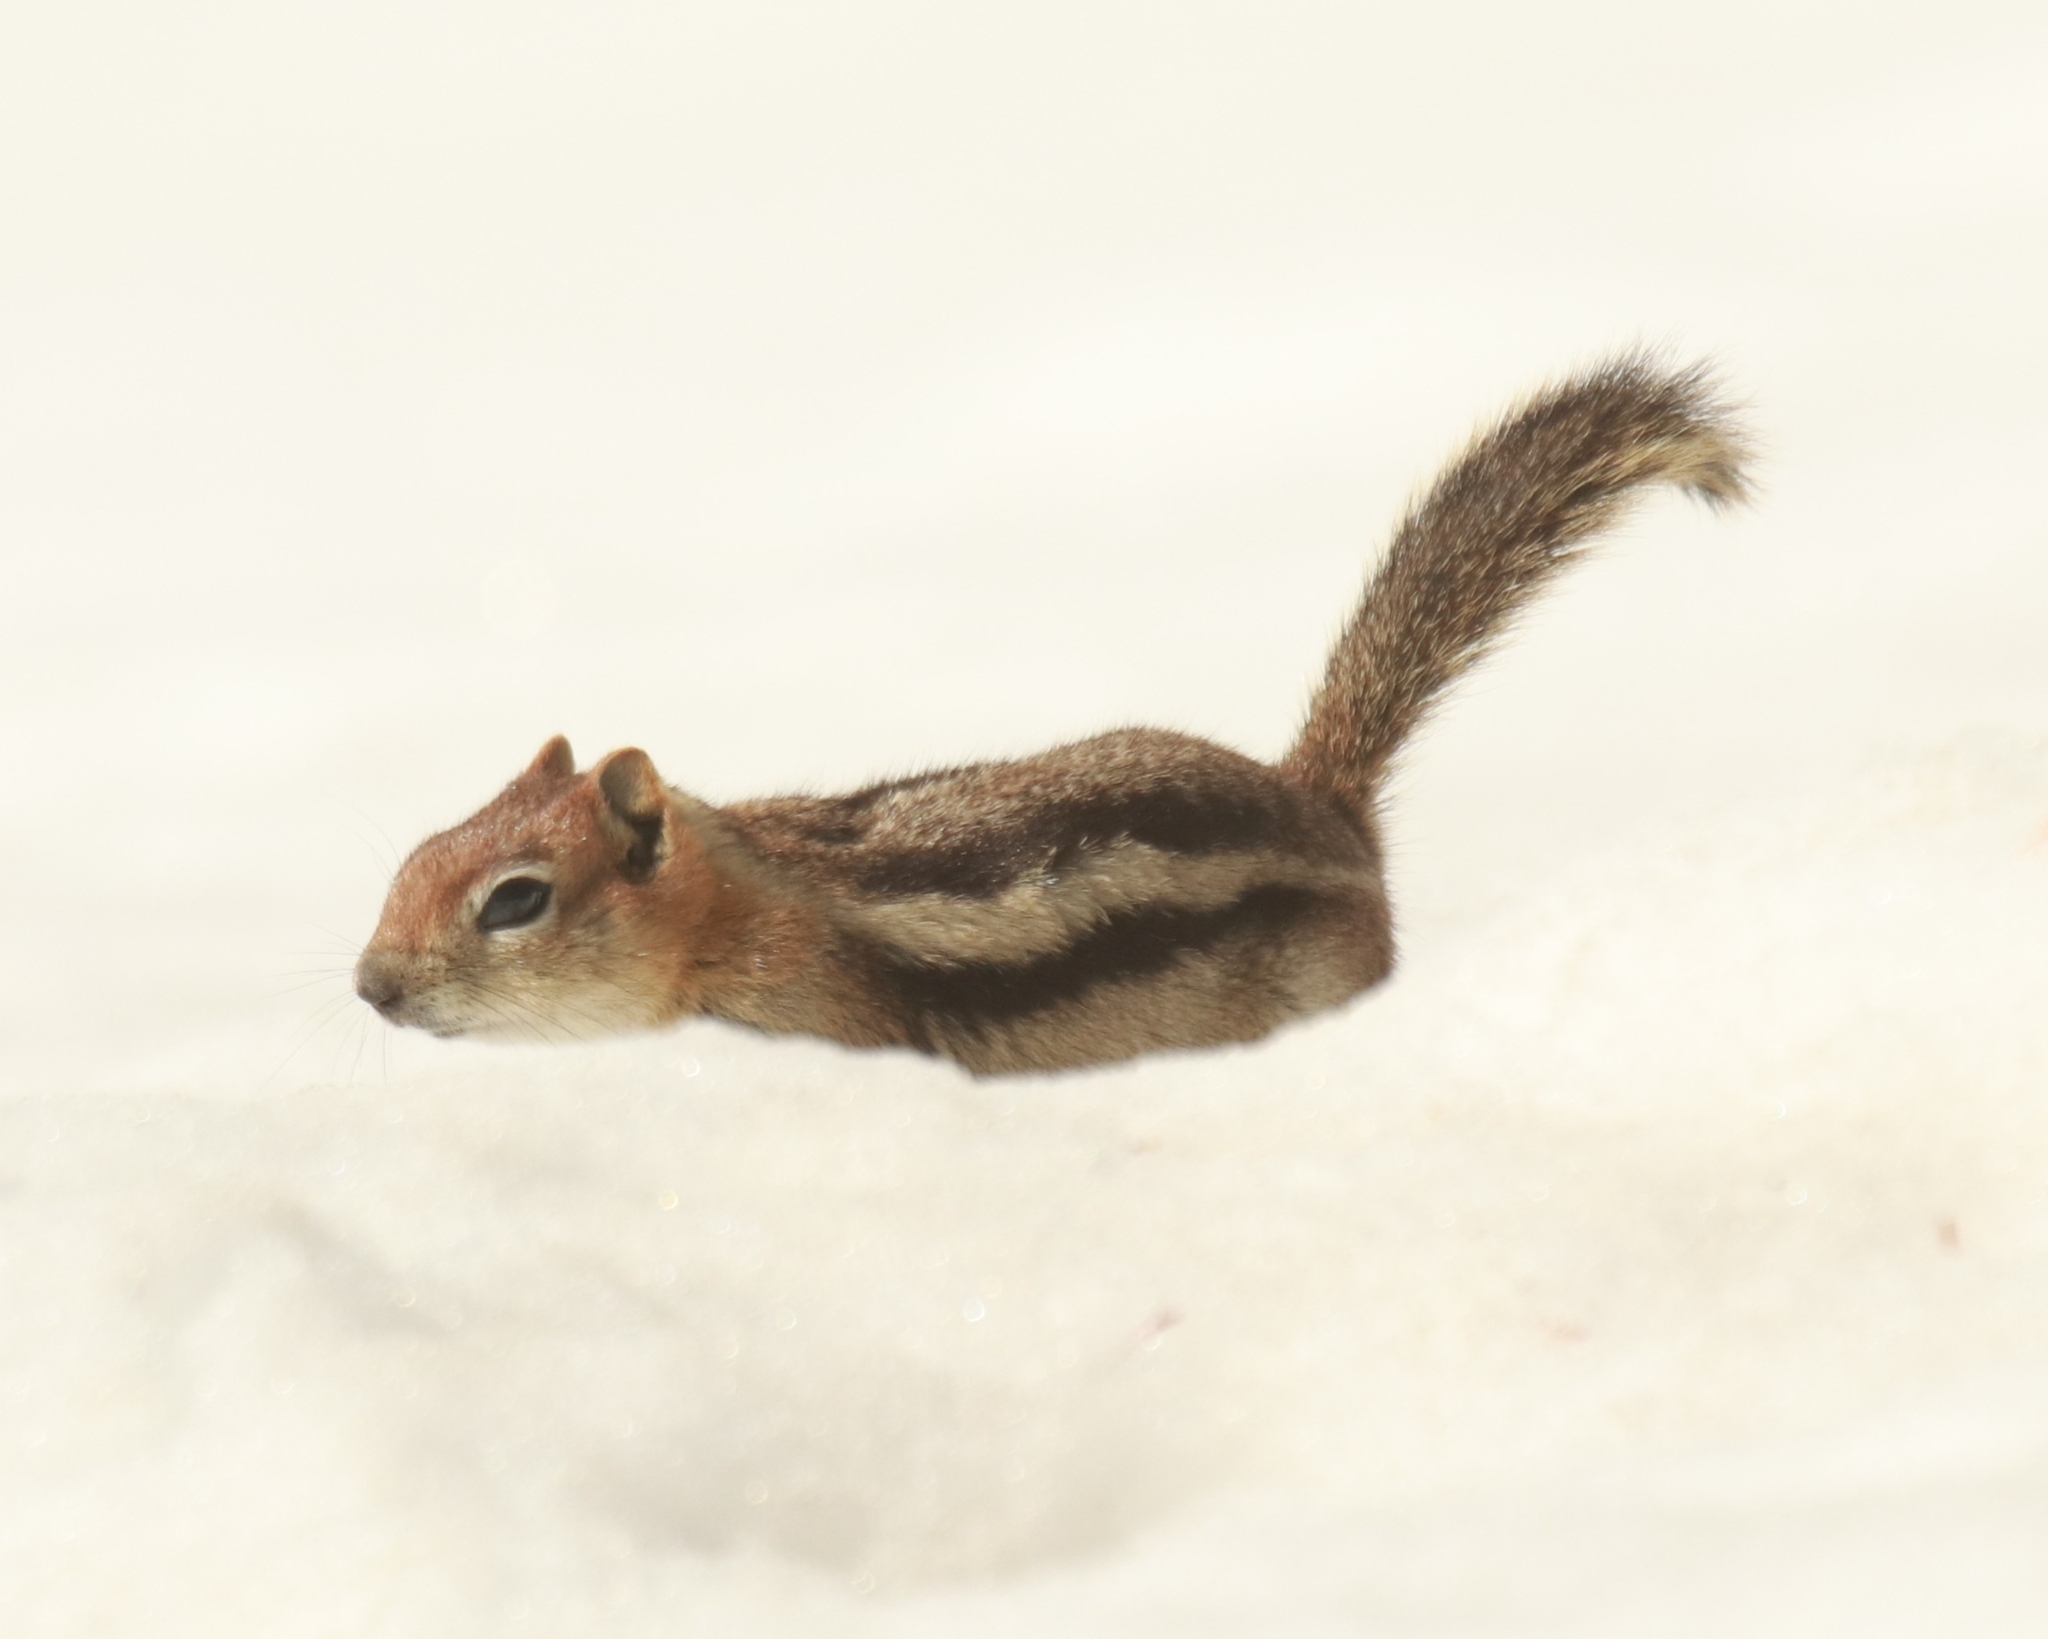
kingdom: Animalia
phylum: Chordata
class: Mammalia
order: Rodentia
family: Sciuridae
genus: Callospermophilus
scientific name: Callospermophilus lateralis
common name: Golden-mantled ground squirrel
